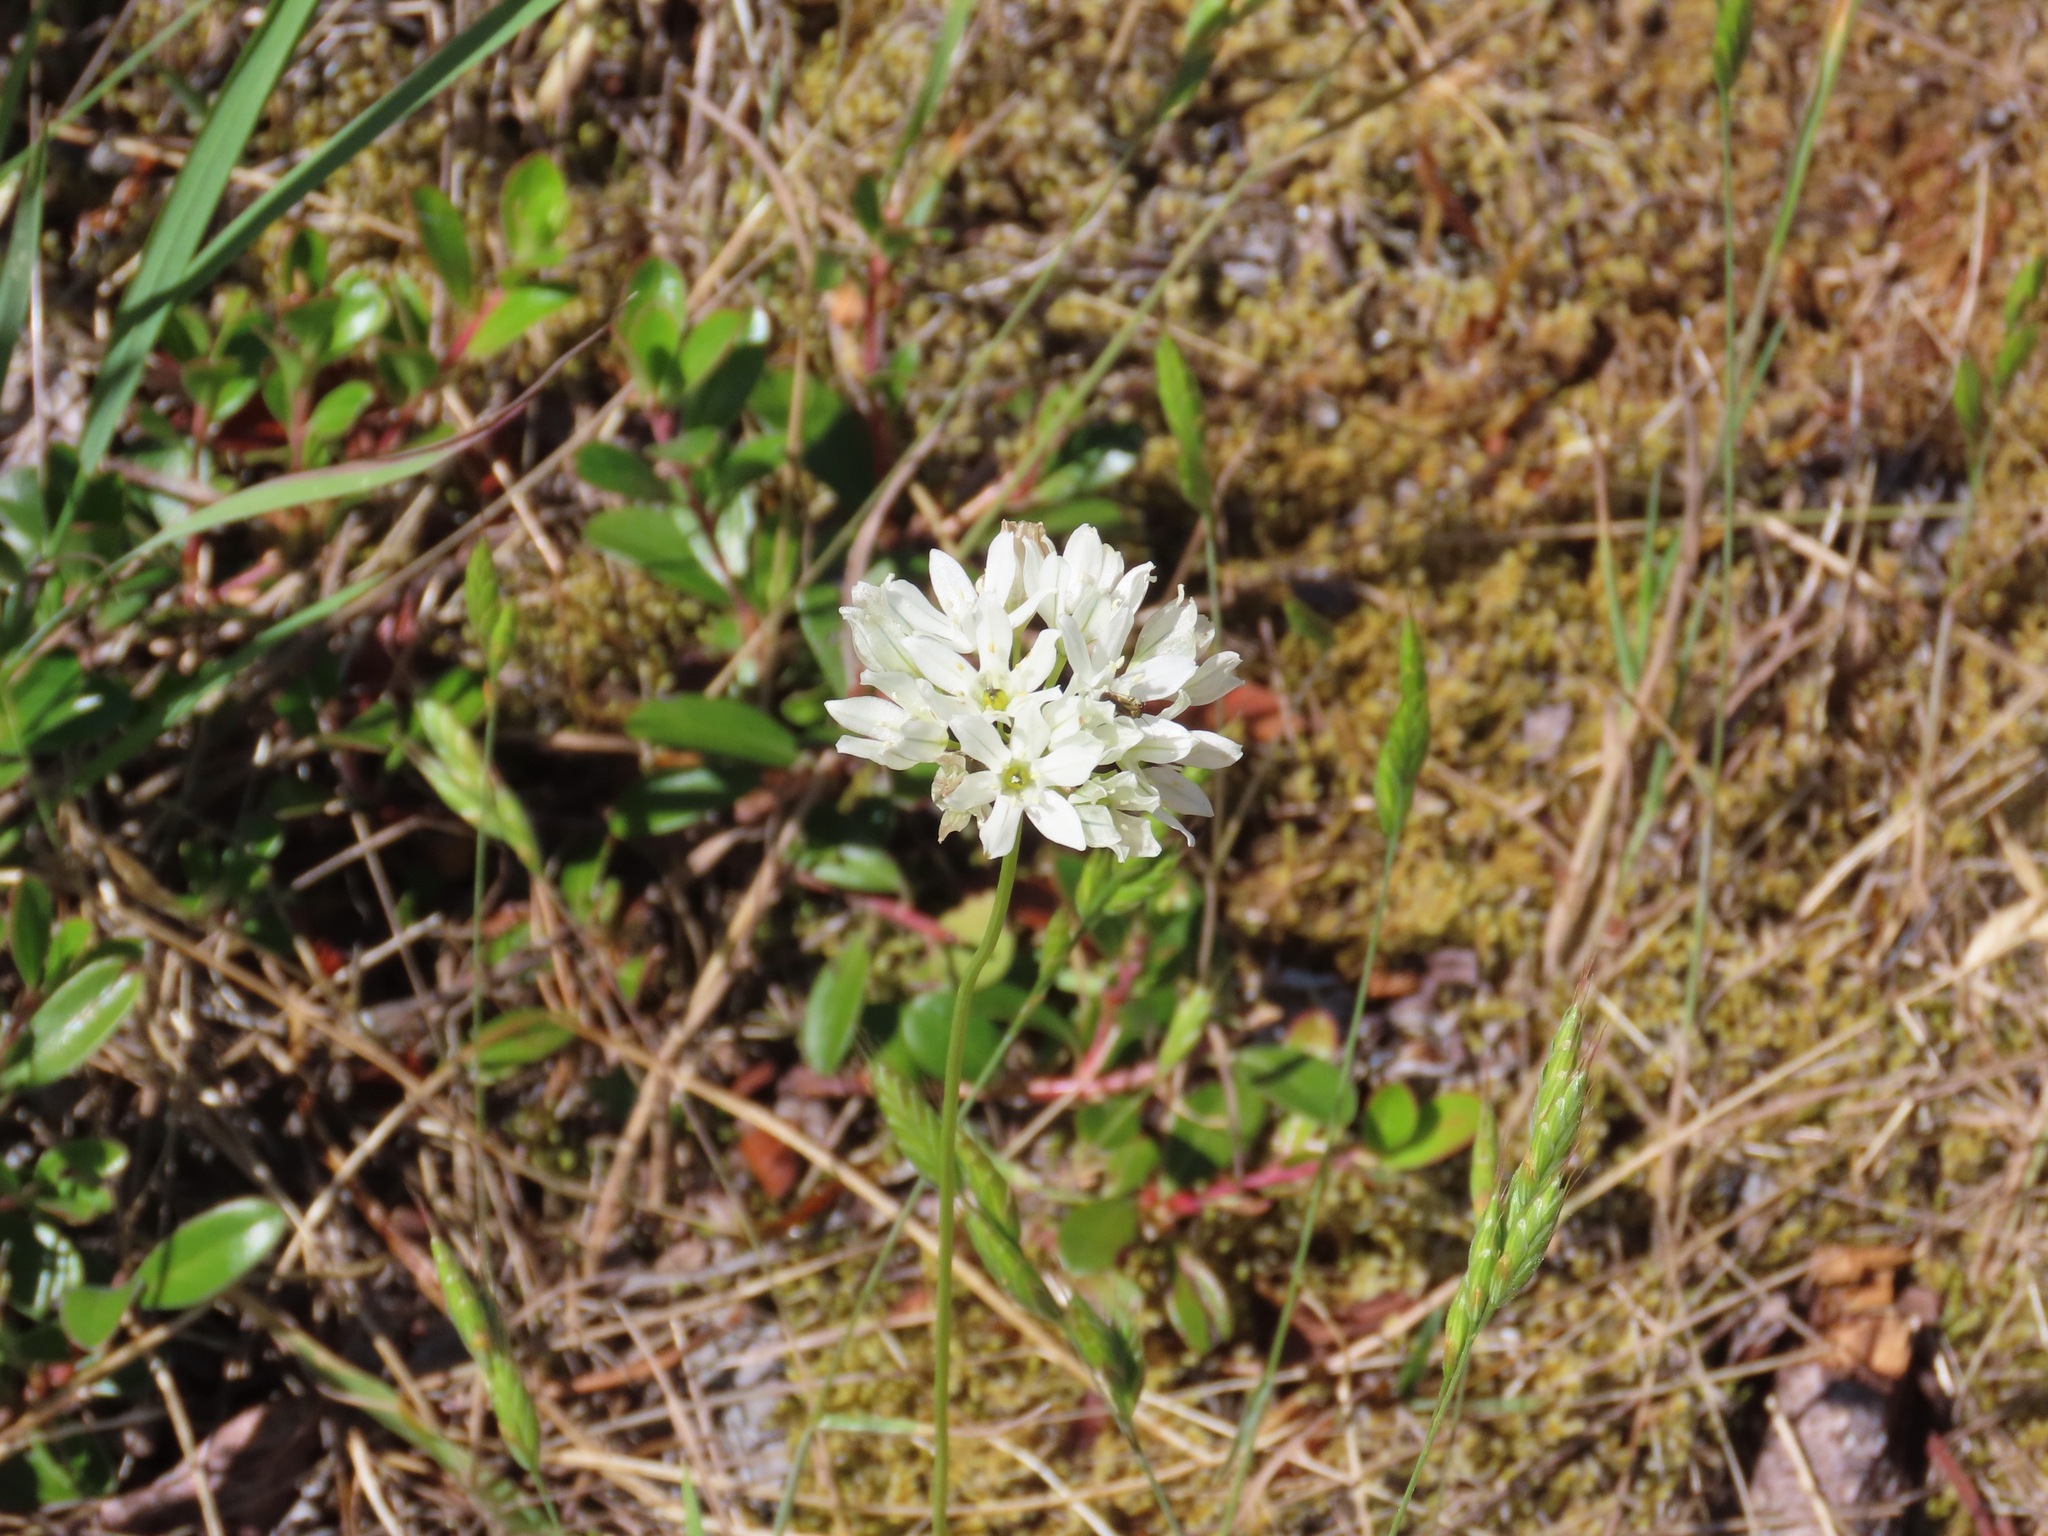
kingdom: Plantae
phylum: Tracheophyta
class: Liliopsida
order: Asparagales
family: Asparagaceae
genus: Triteleia
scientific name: Triteleia hyacinthina
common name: White brodiaea
